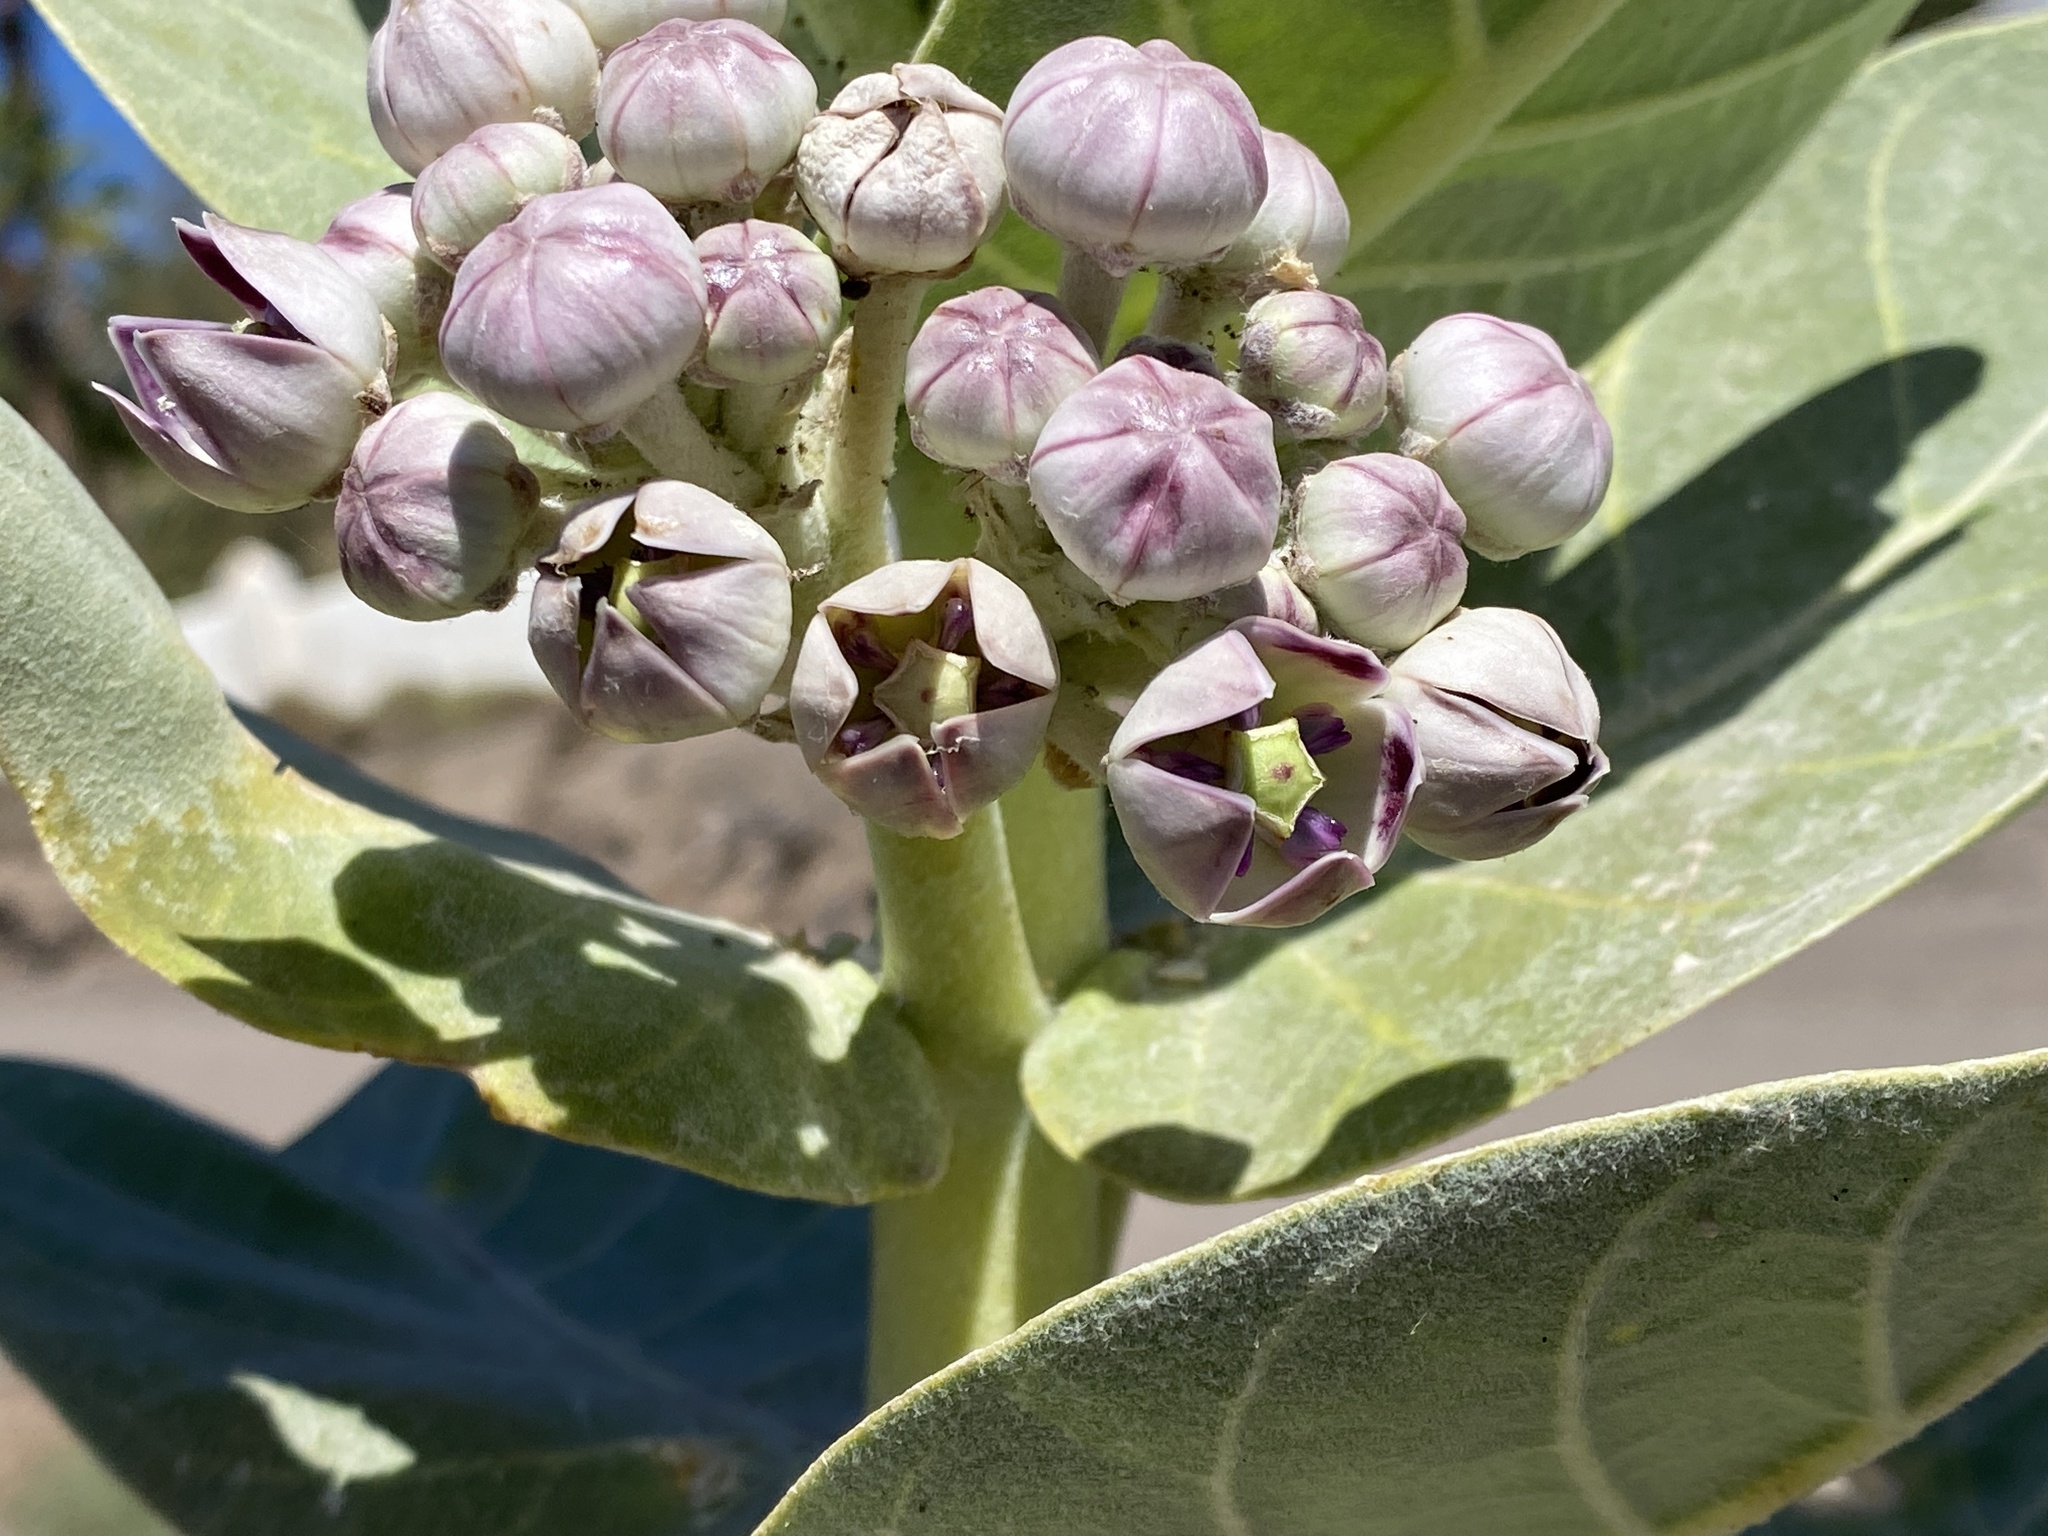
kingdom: Plantae
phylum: Tracheophyta
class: Magnoliopsida
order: Gentianales
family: Apocynaceae
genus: Calotropis
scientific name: Calotropis procera
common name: Roostertree
